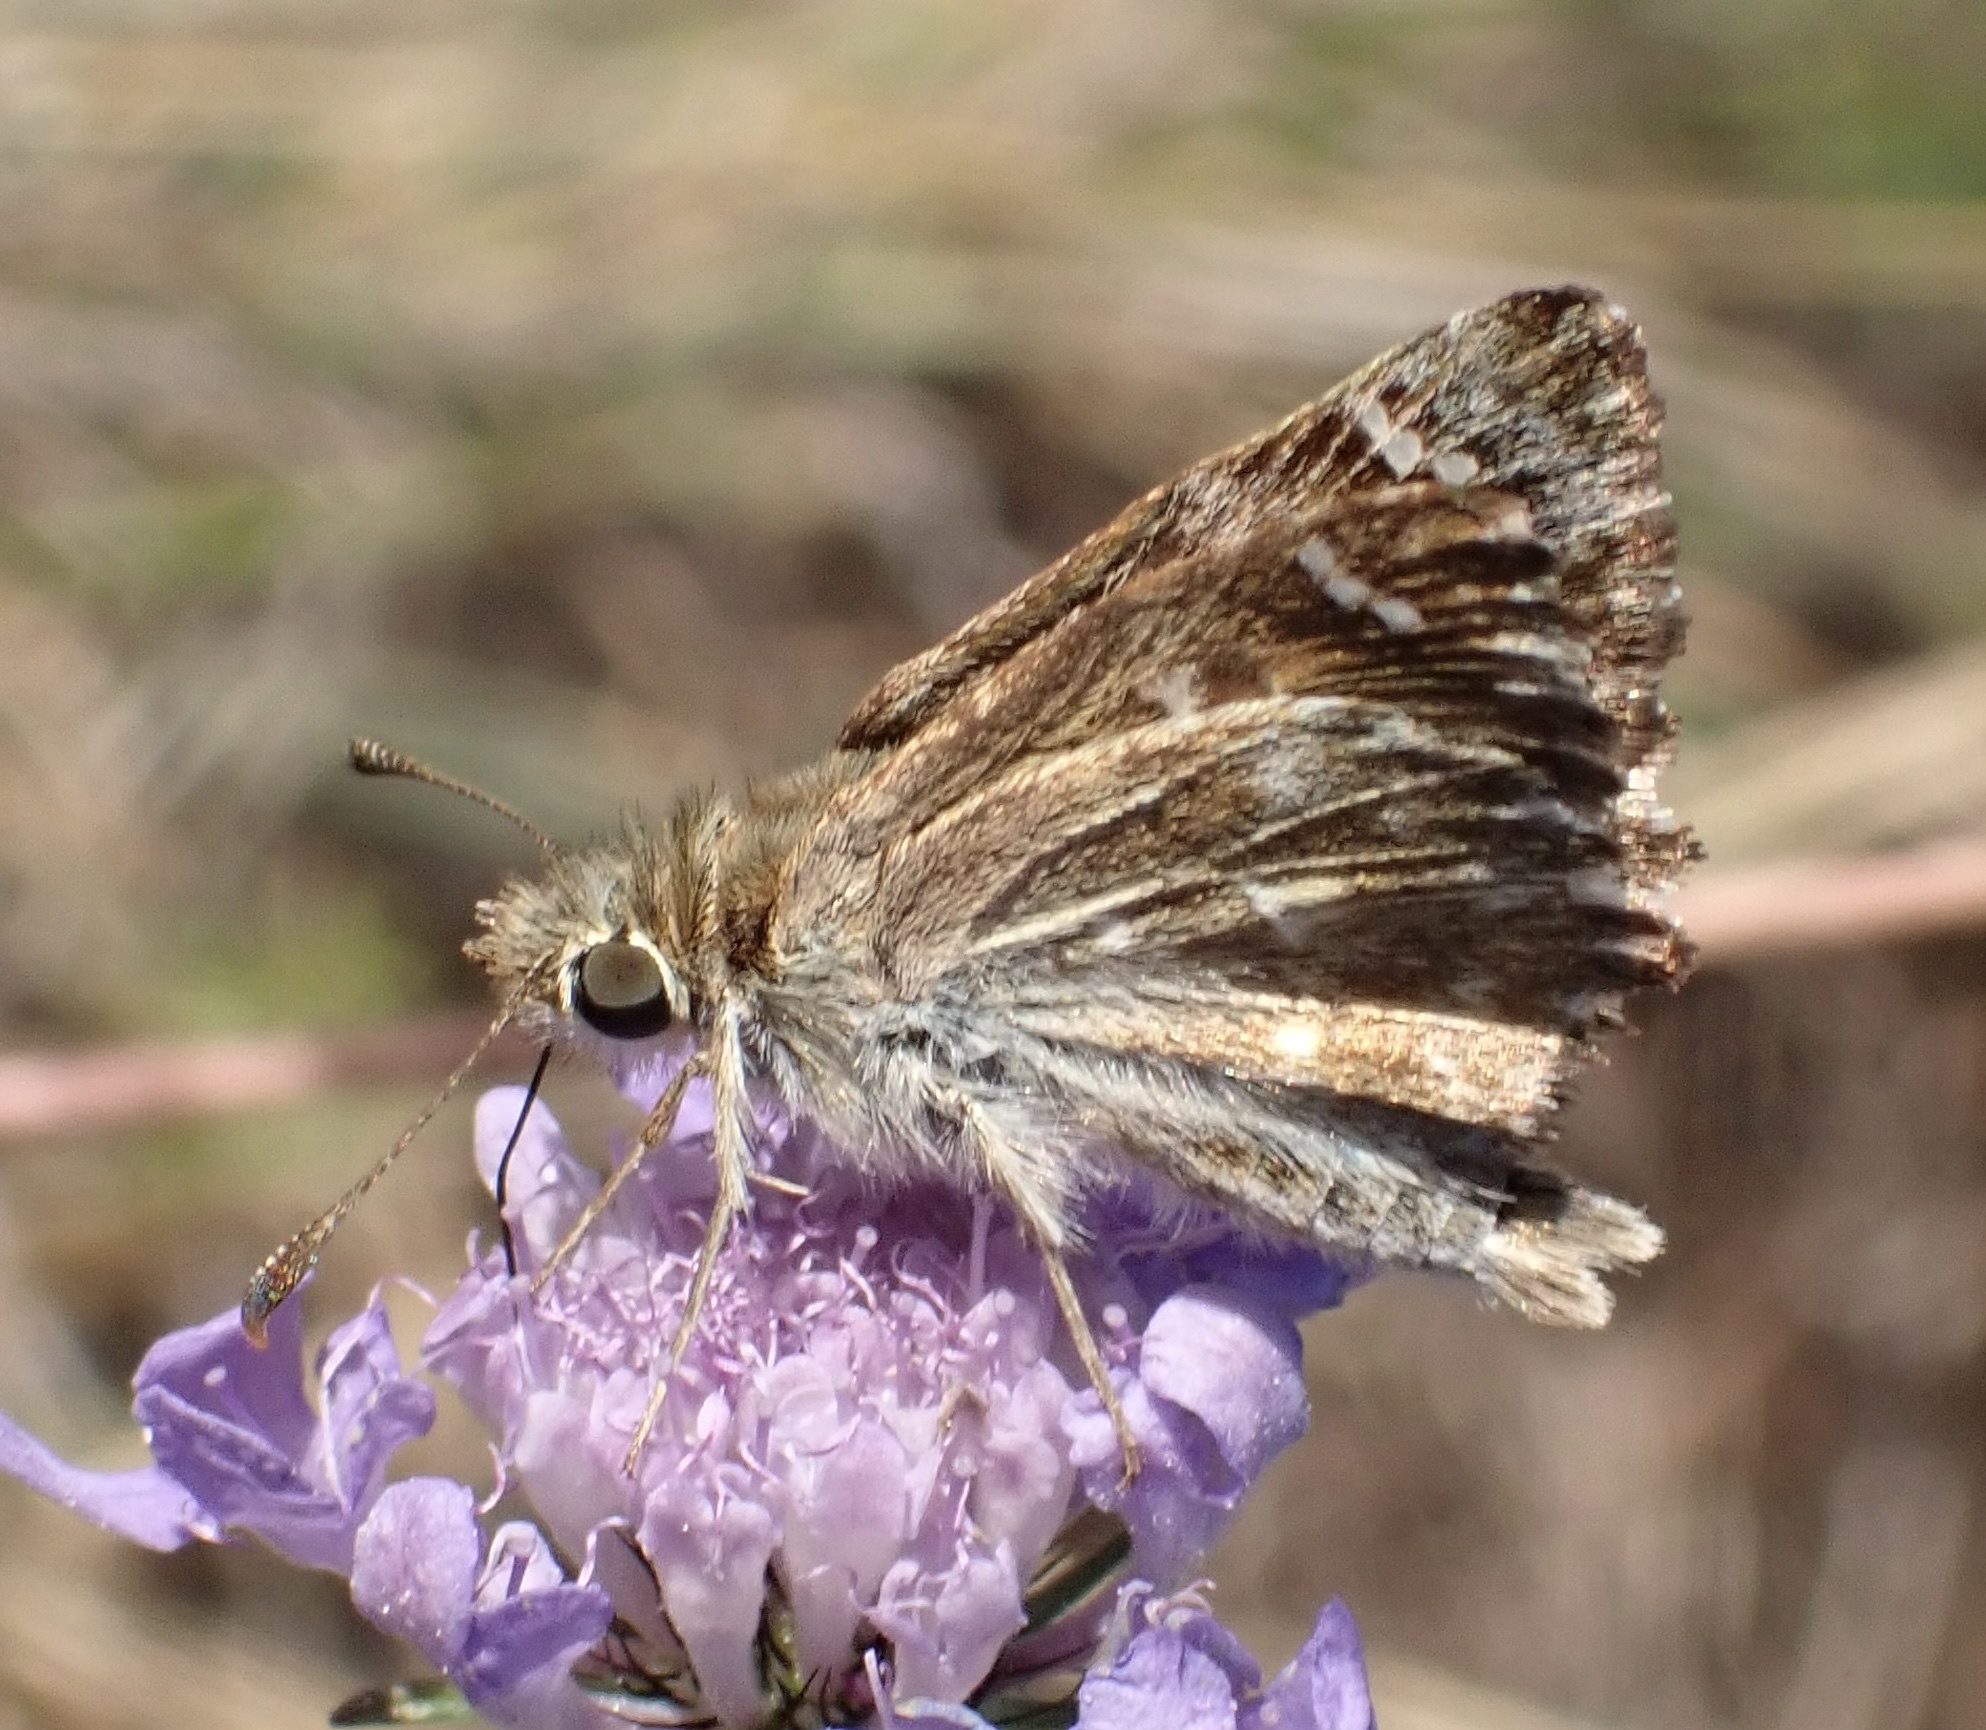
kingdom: Animalia
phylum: Arthropoda
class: Insecta
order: Lepidoptera
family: Hesperiidae
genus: Carcharodus
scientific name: Carcharodus alceae
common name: Mallow skipper
